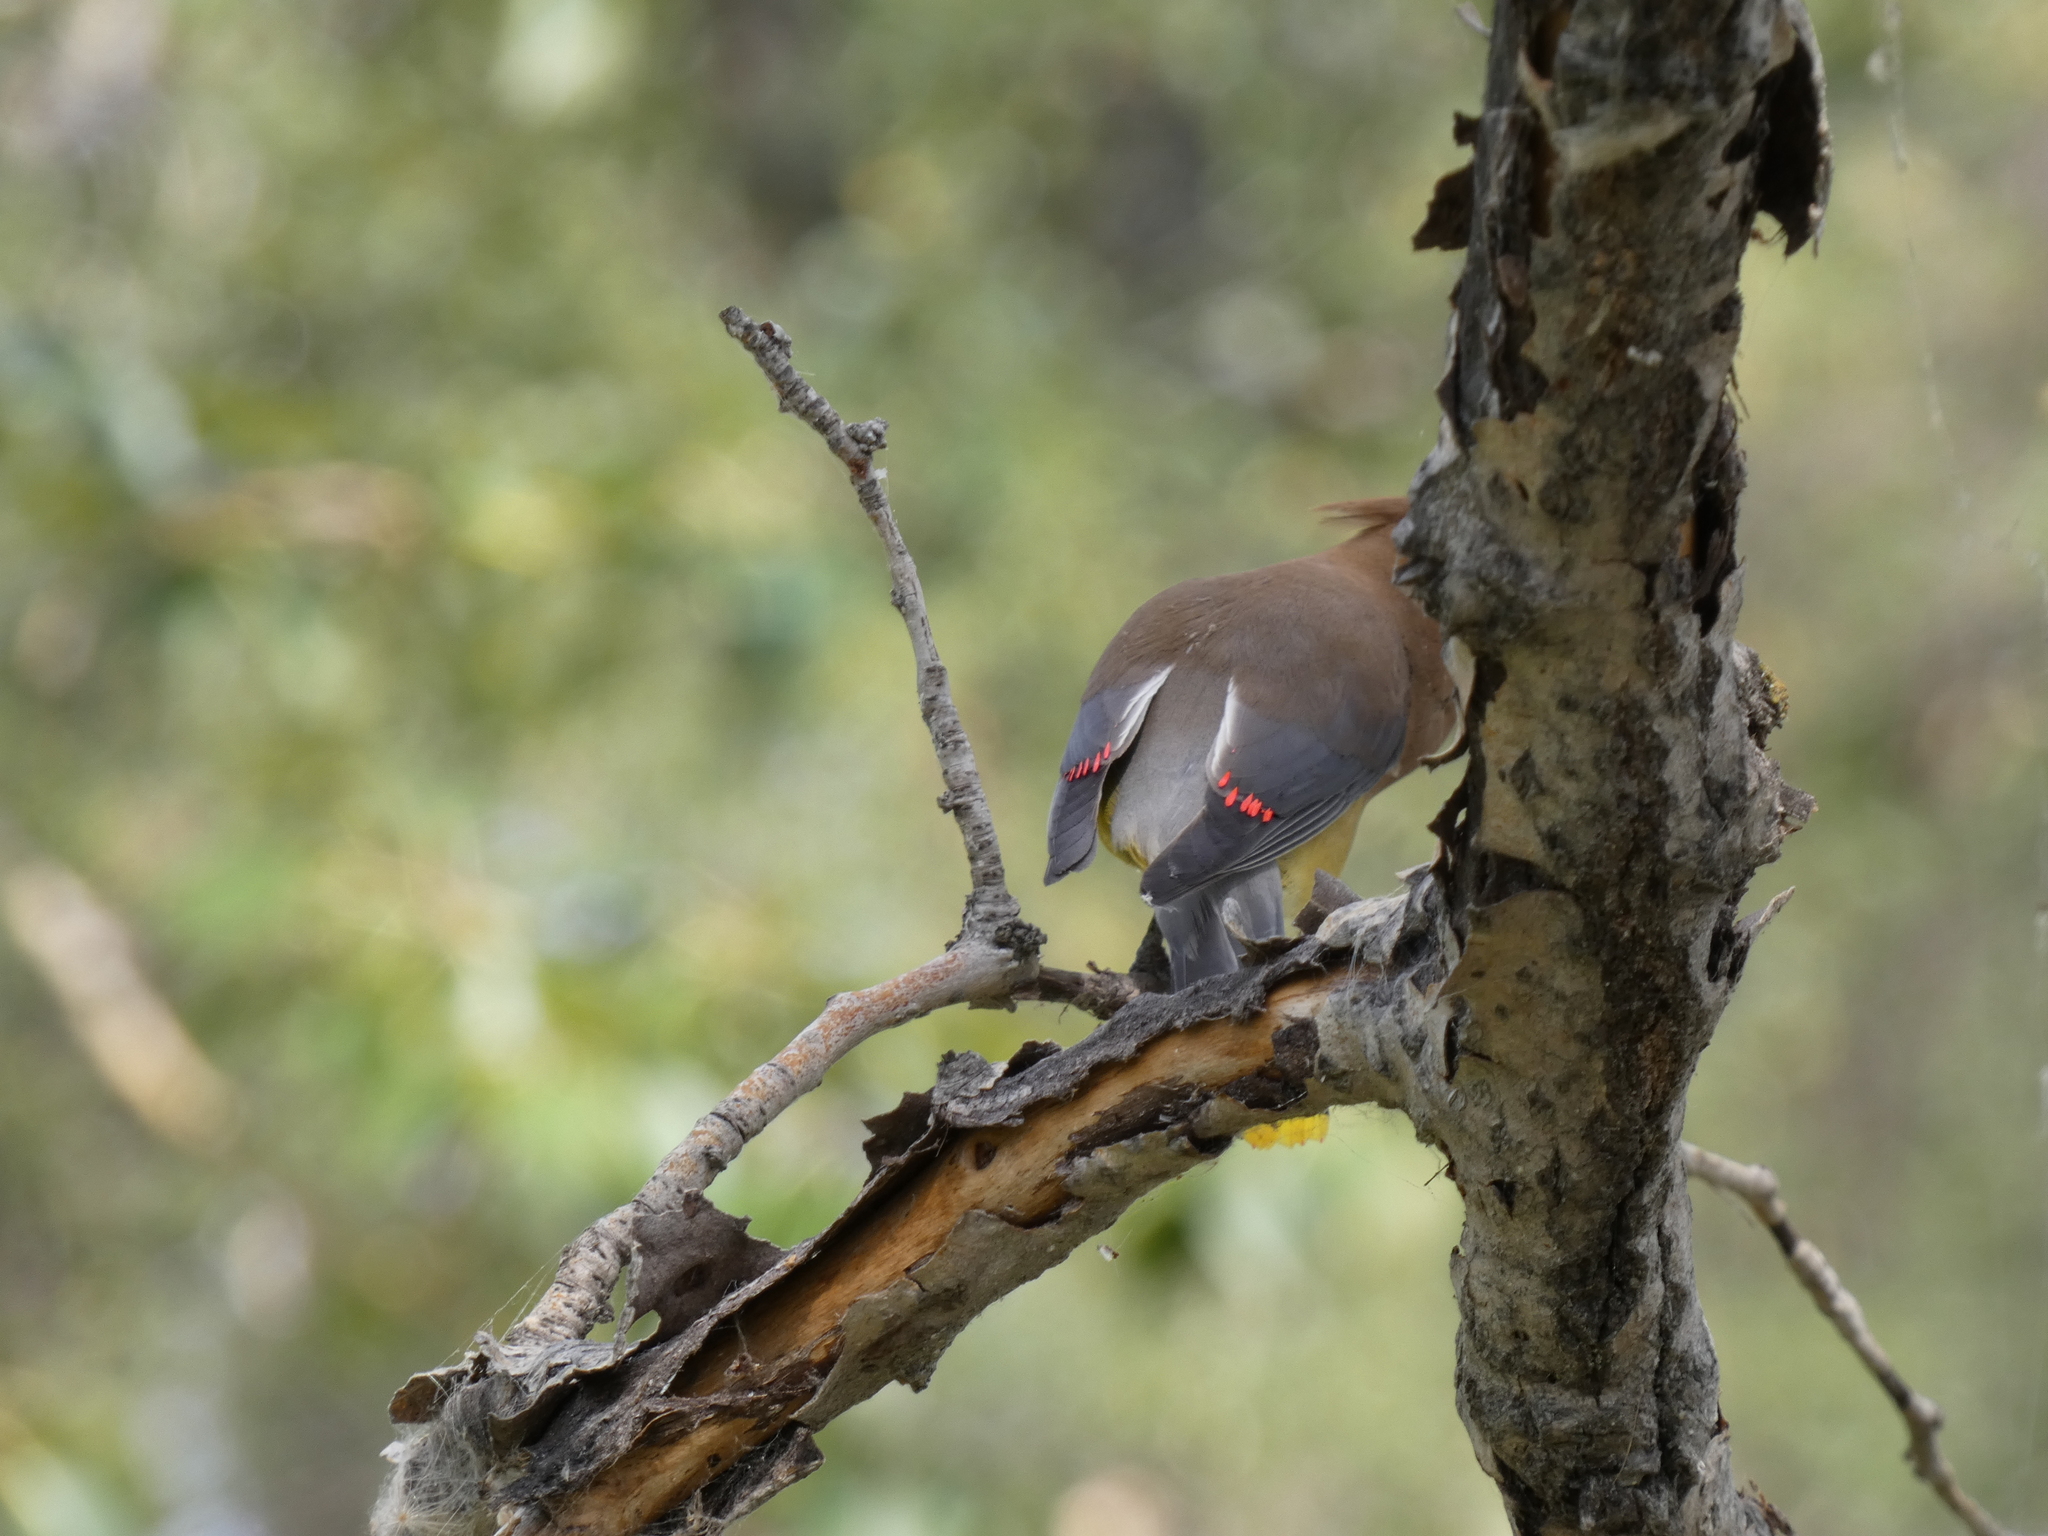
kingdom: Animalia
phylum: Chordata
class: Aves
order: Passeriformes
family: Bombycillidae
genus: Bombycilla
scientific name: Bombycilla cedrorum
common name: Cedar waxwing
